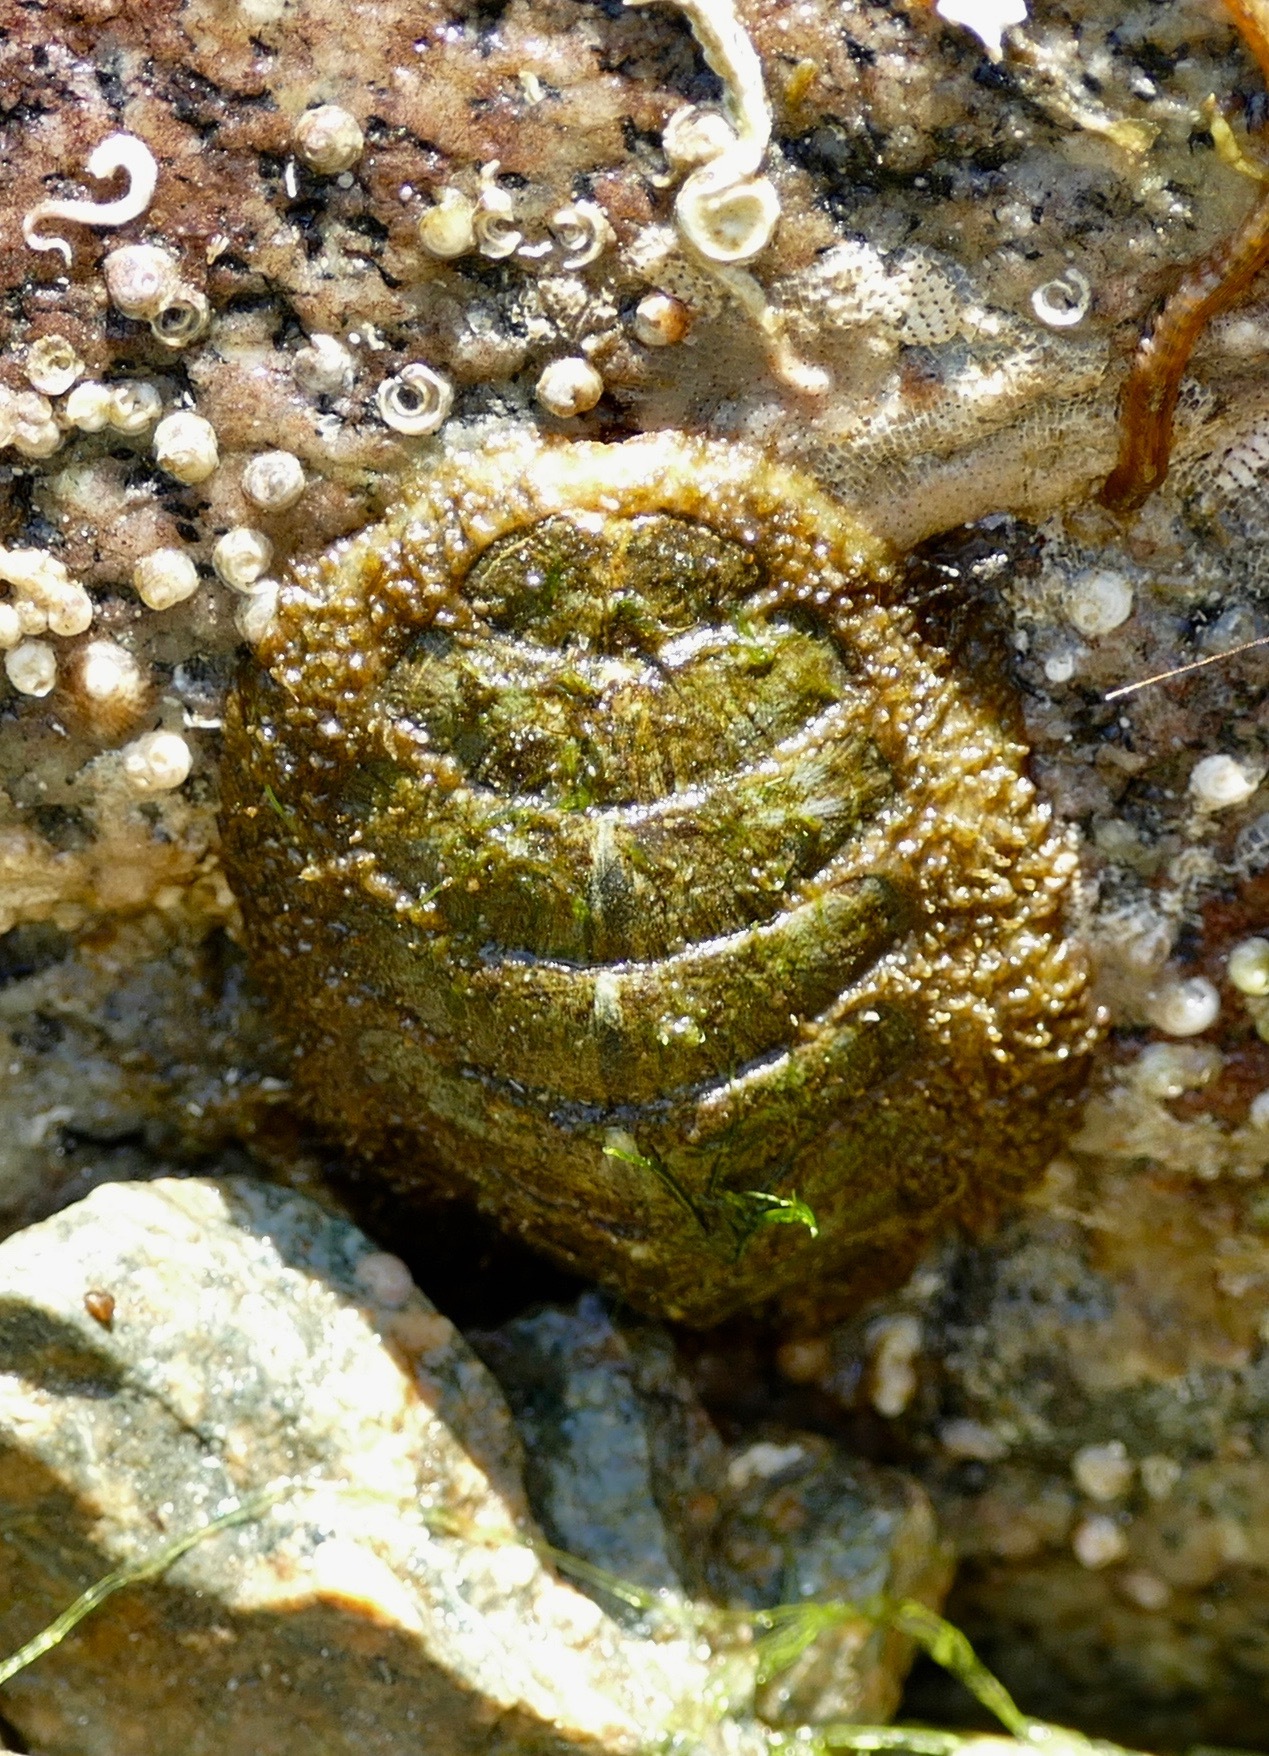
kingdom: Animalia
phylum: Mollusca
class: Polyplacophora
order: Chitonida
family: Mopaliidae
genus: Mopalia
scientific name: Mopalia lignosa
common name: Woody chiton
